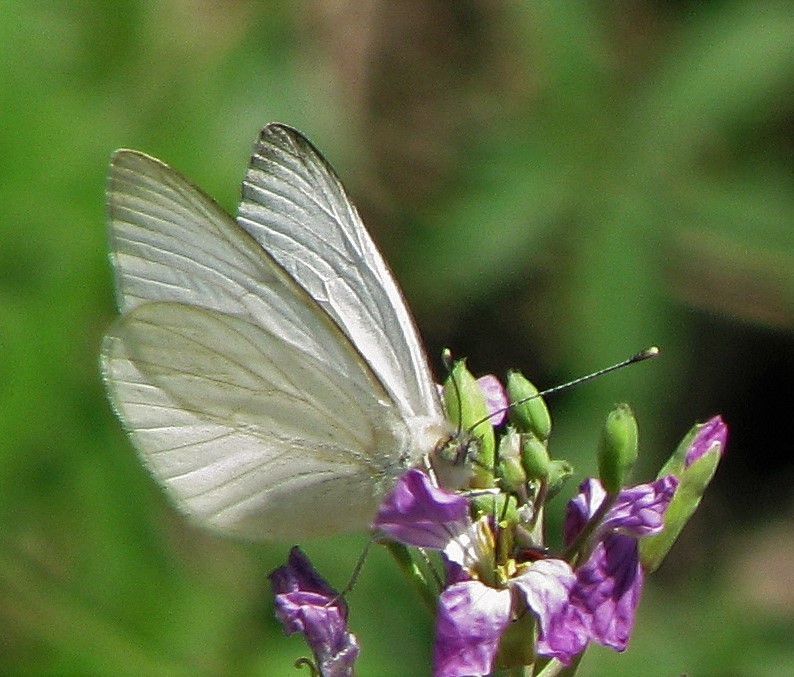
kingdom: Animalia
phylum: Arthropoda
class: Insecta
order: Lepidoptera
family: Pieridae
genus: Theochila
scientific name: Theochila maenacte
